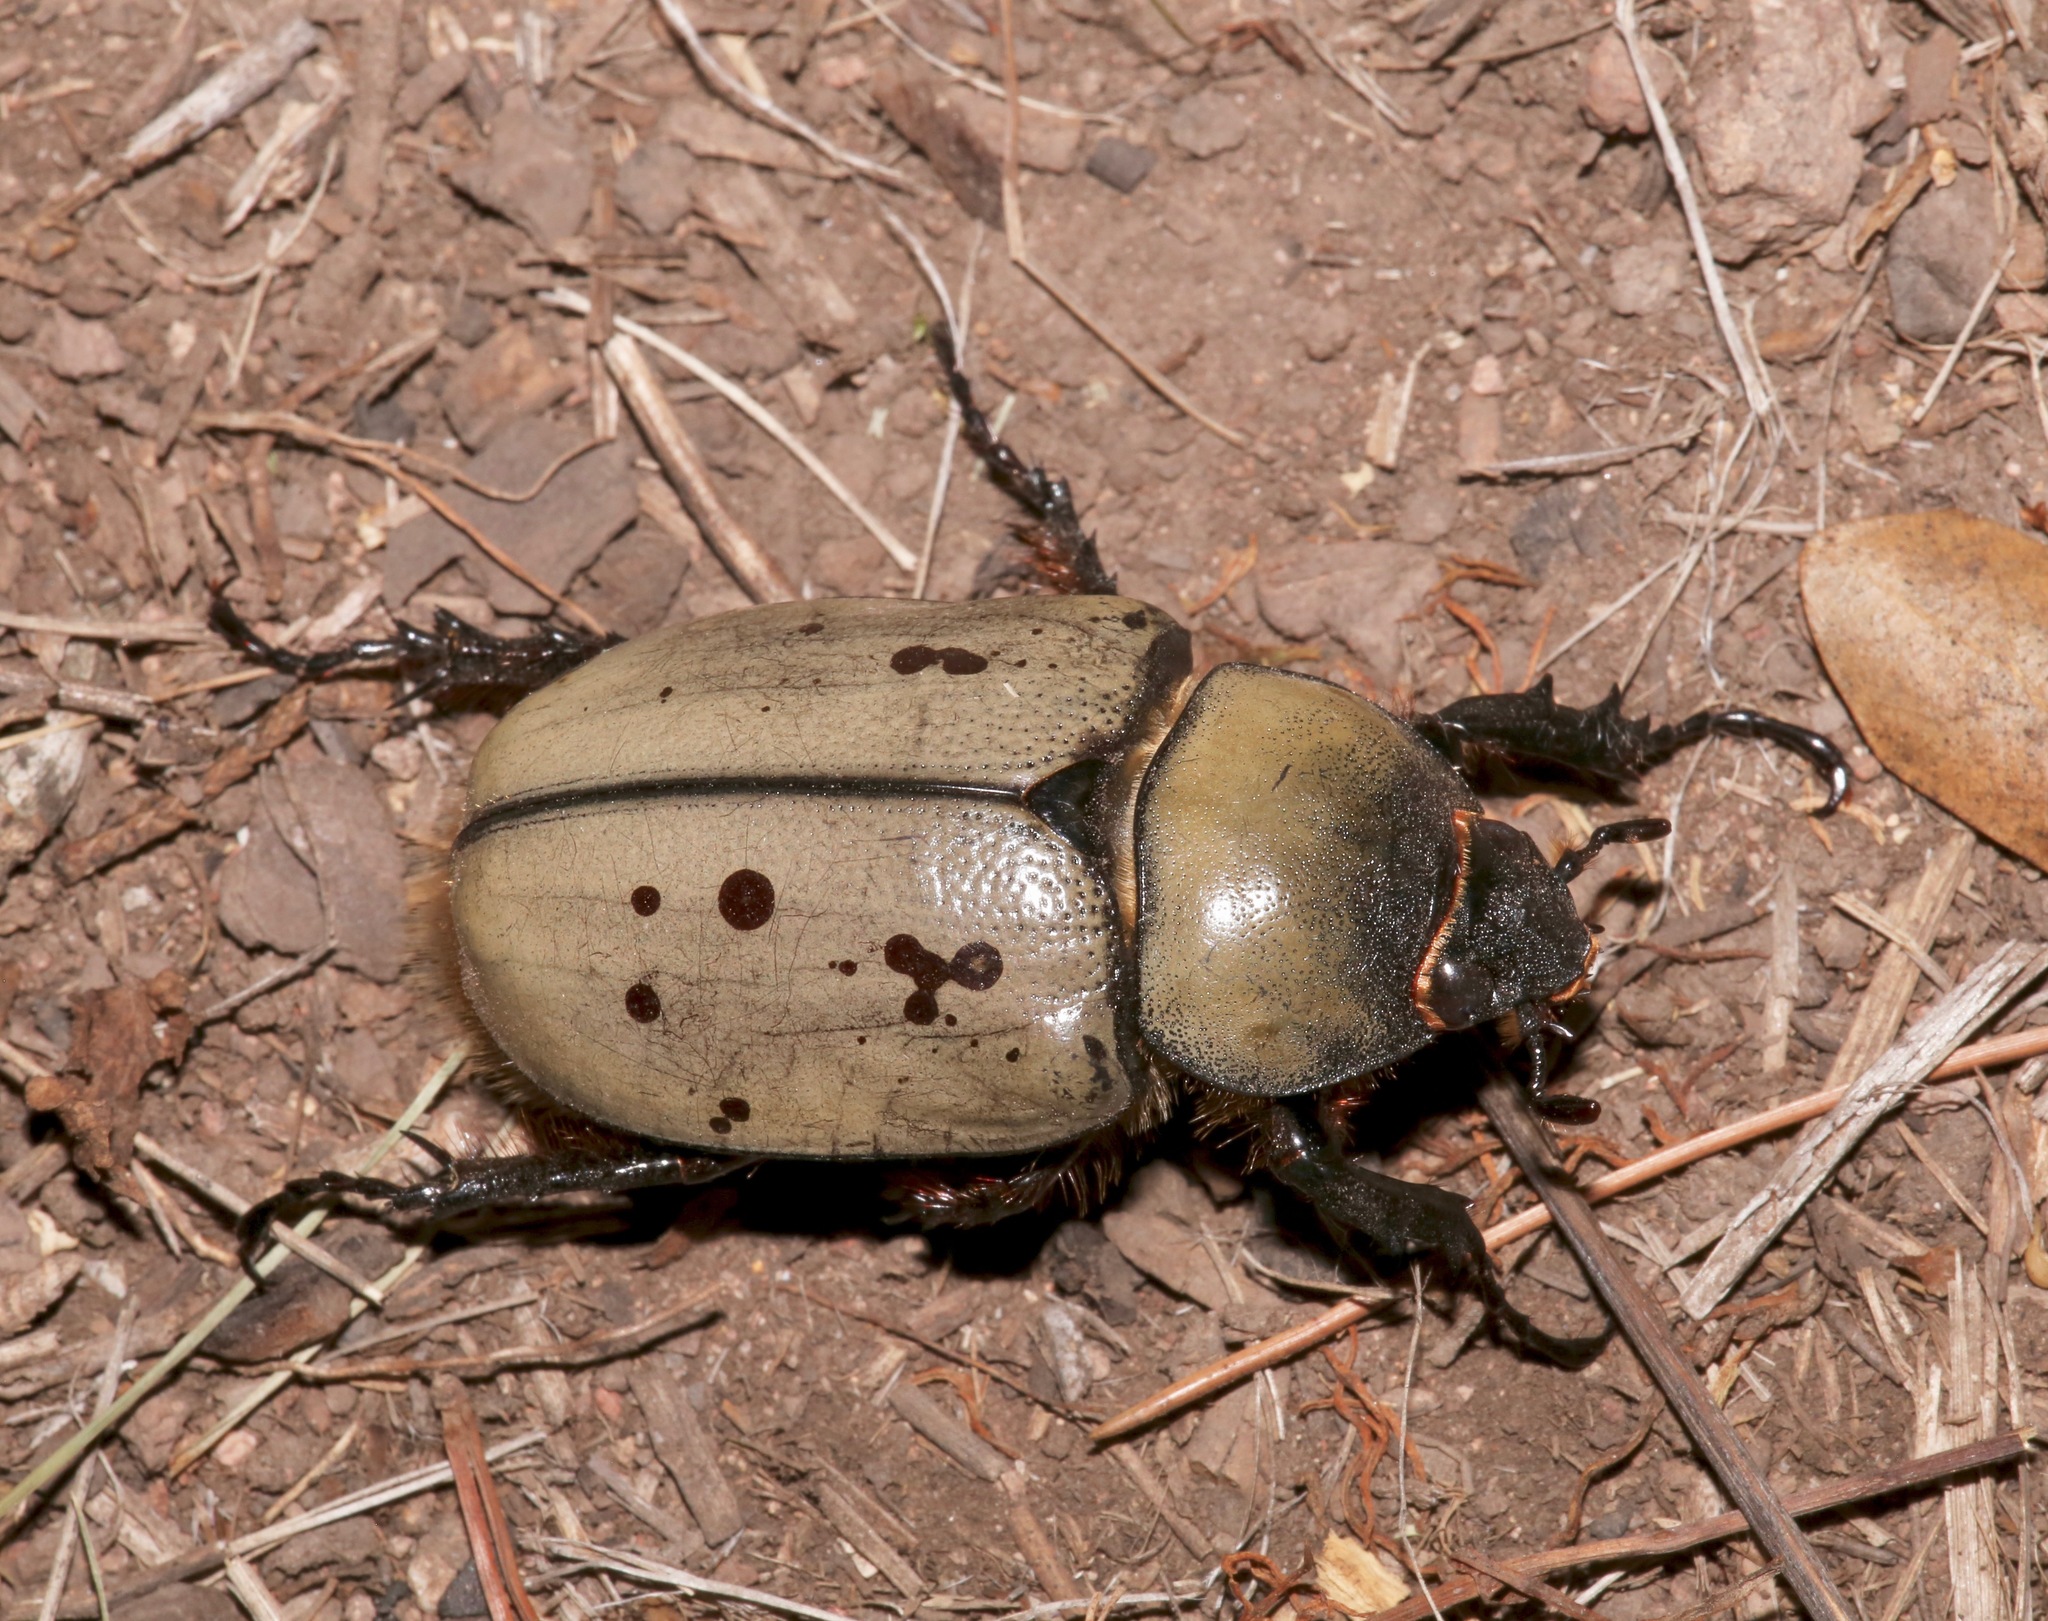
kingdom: Animalia
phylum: Arthropoda
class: Insecta
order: Coleoptera
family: Scarabaeidae
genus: Dynastes
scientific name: Dynastes grantii
